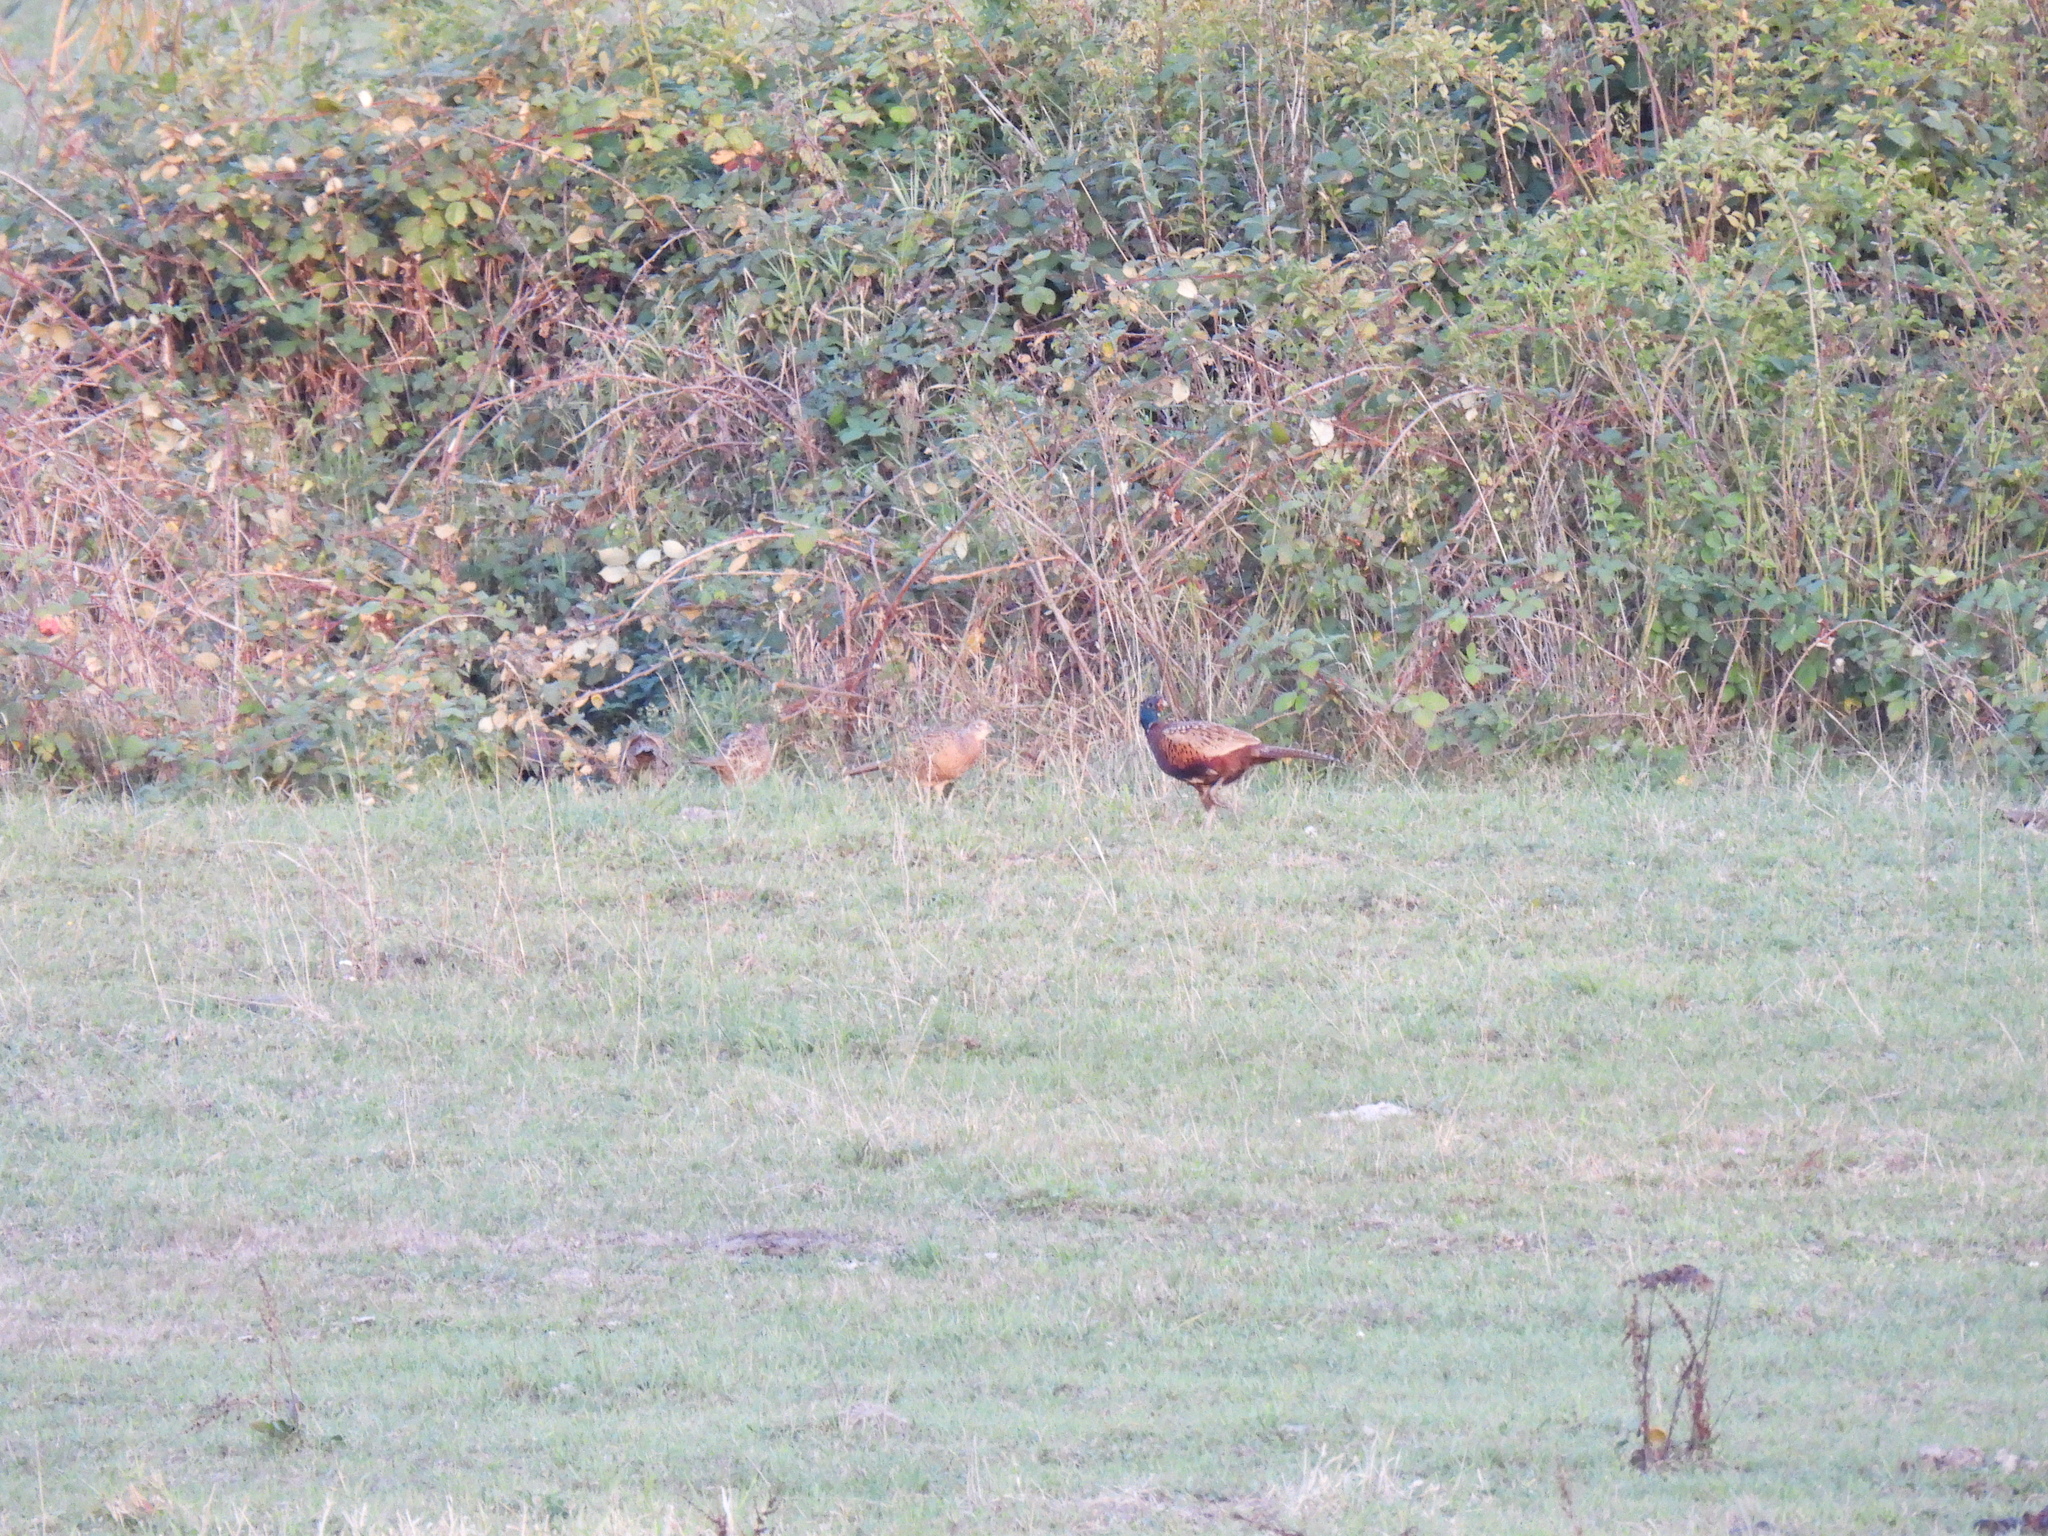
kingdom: Animalia
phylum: Chordata
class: Aves
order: Galliformes
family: Phasianidae
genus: Phasianus
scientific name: Phasianus colchicus
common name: Common pheasant
